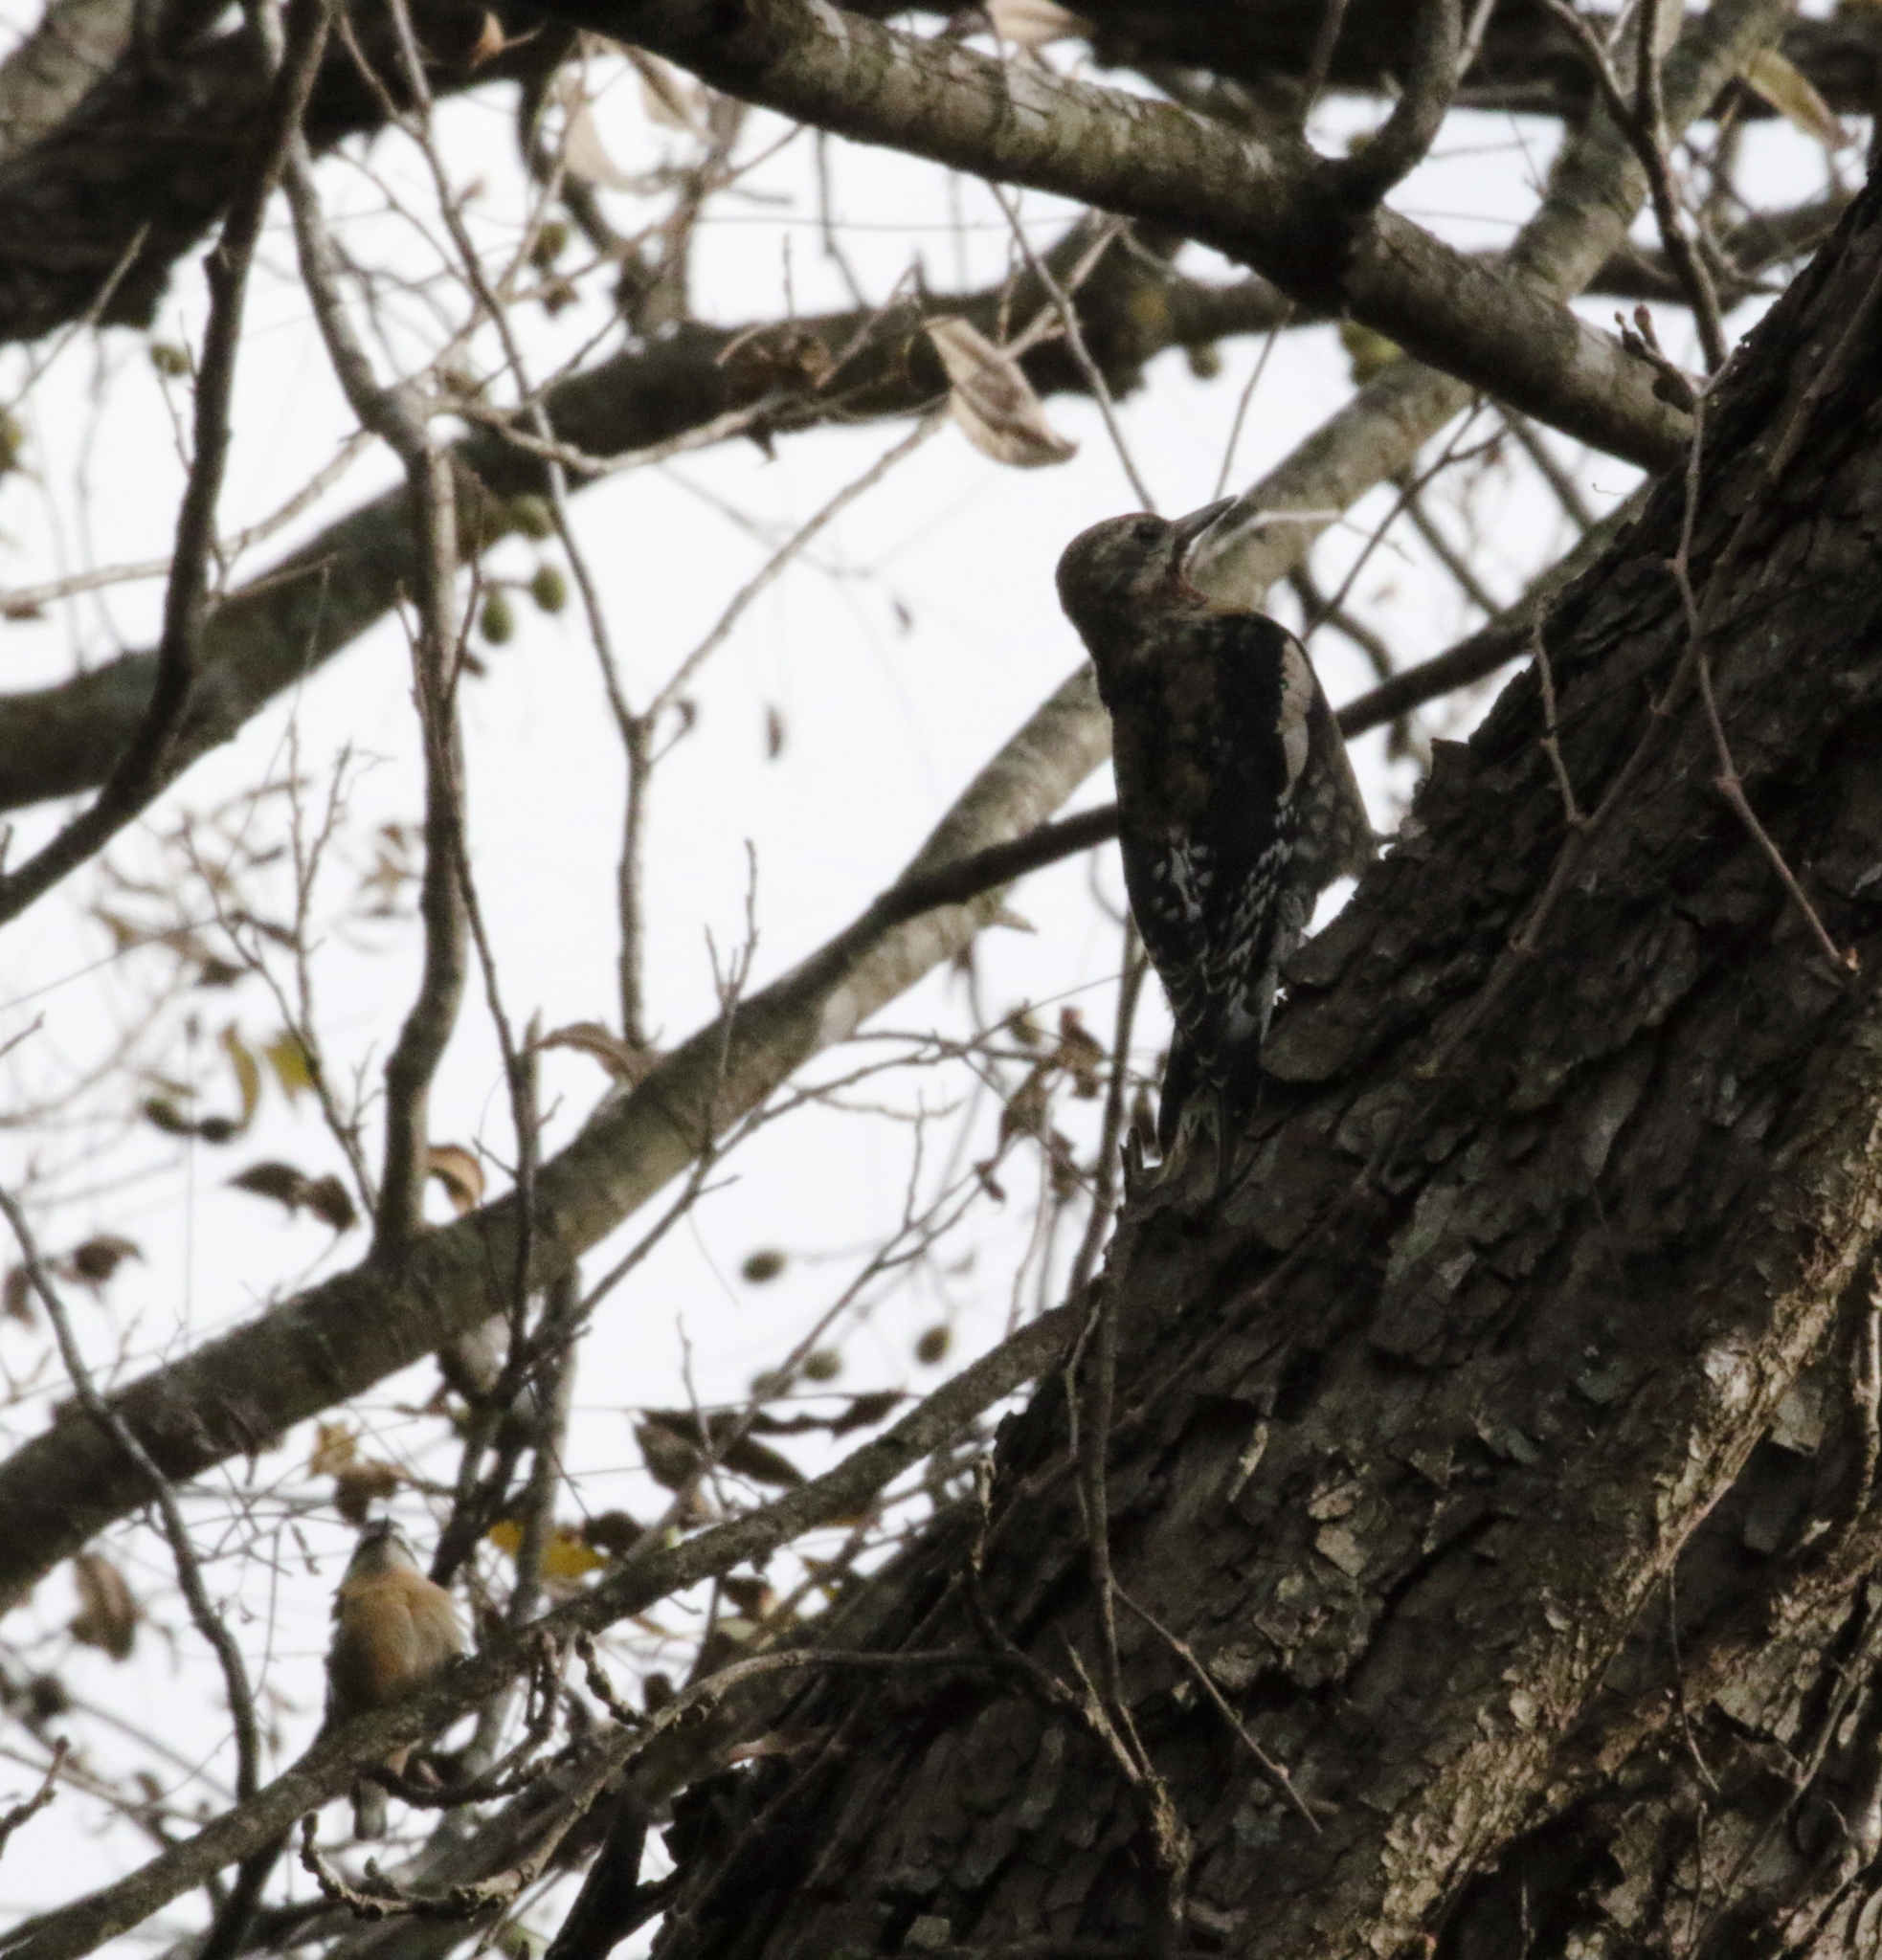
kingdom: Animalia
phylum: Chordata
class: Aves
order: Piciformes
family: Picidae
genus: Sphyrapicus
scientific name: Sphyrapicus varius
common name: Yellow-bellied sapsucker
